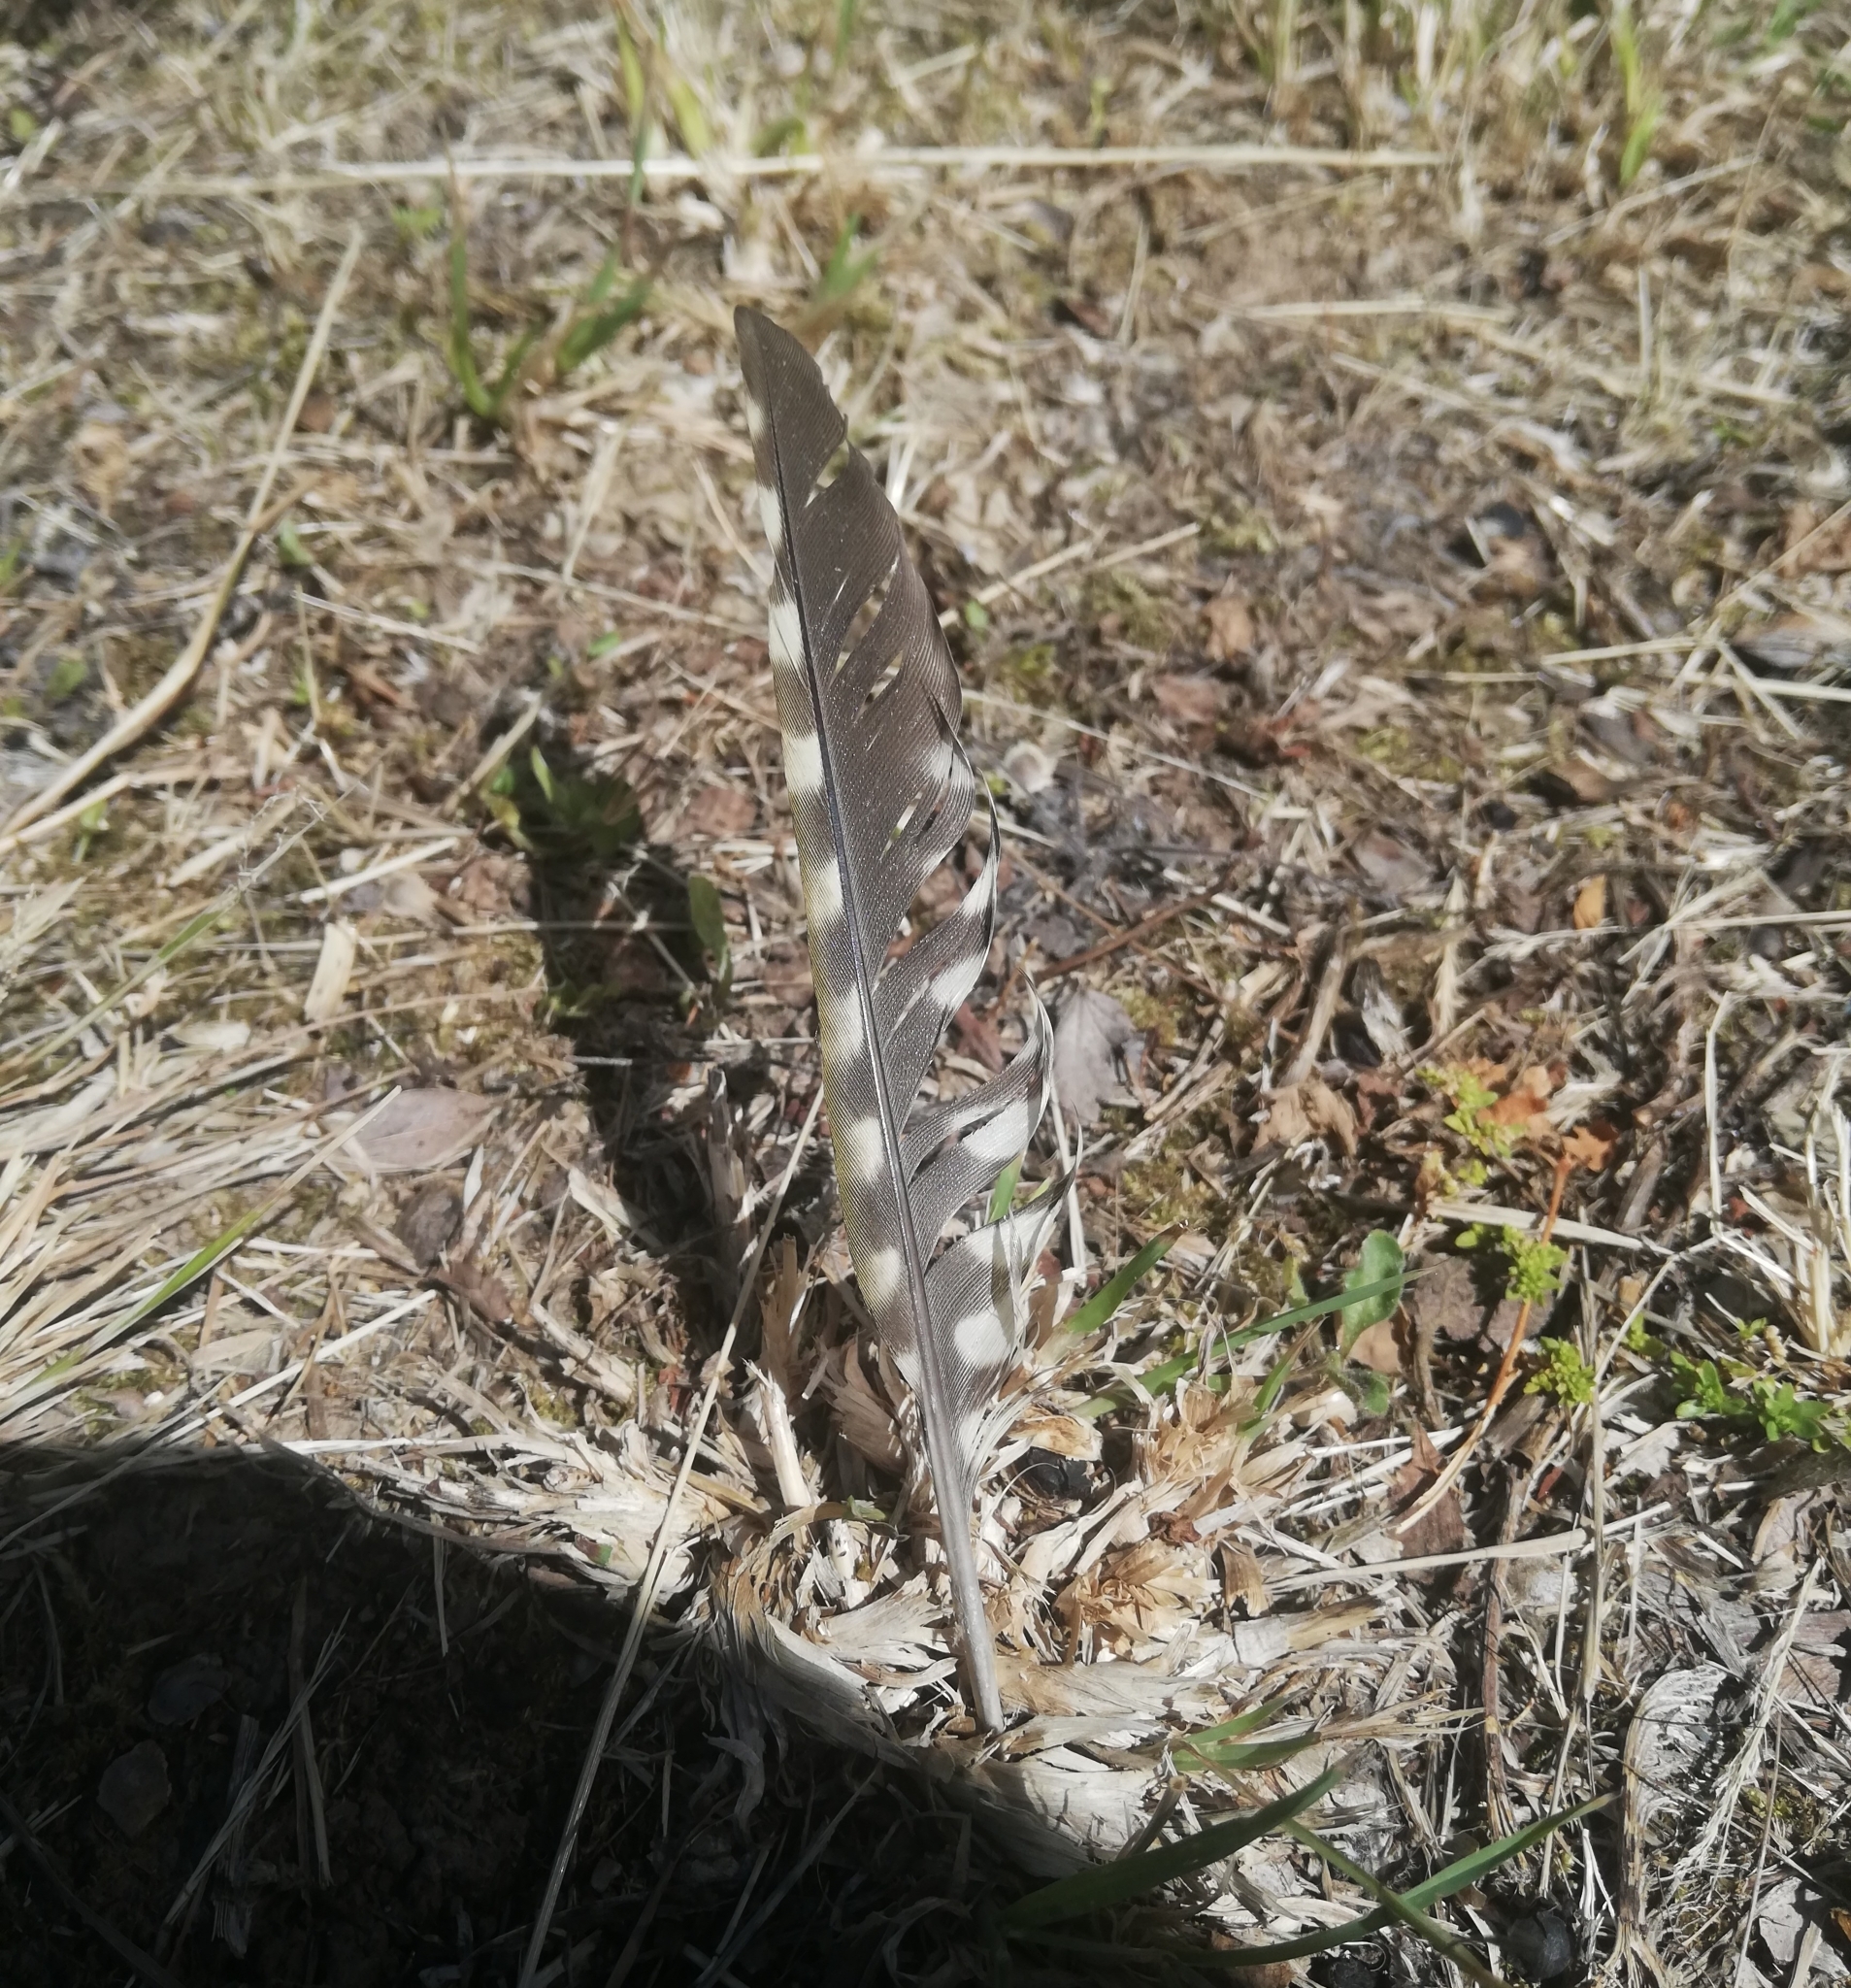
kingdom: Animalia
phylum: Chordata
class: Aves
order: Piciformes
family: Picidae
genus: Picus
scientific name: Picus viridis
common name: European green woodpecker
